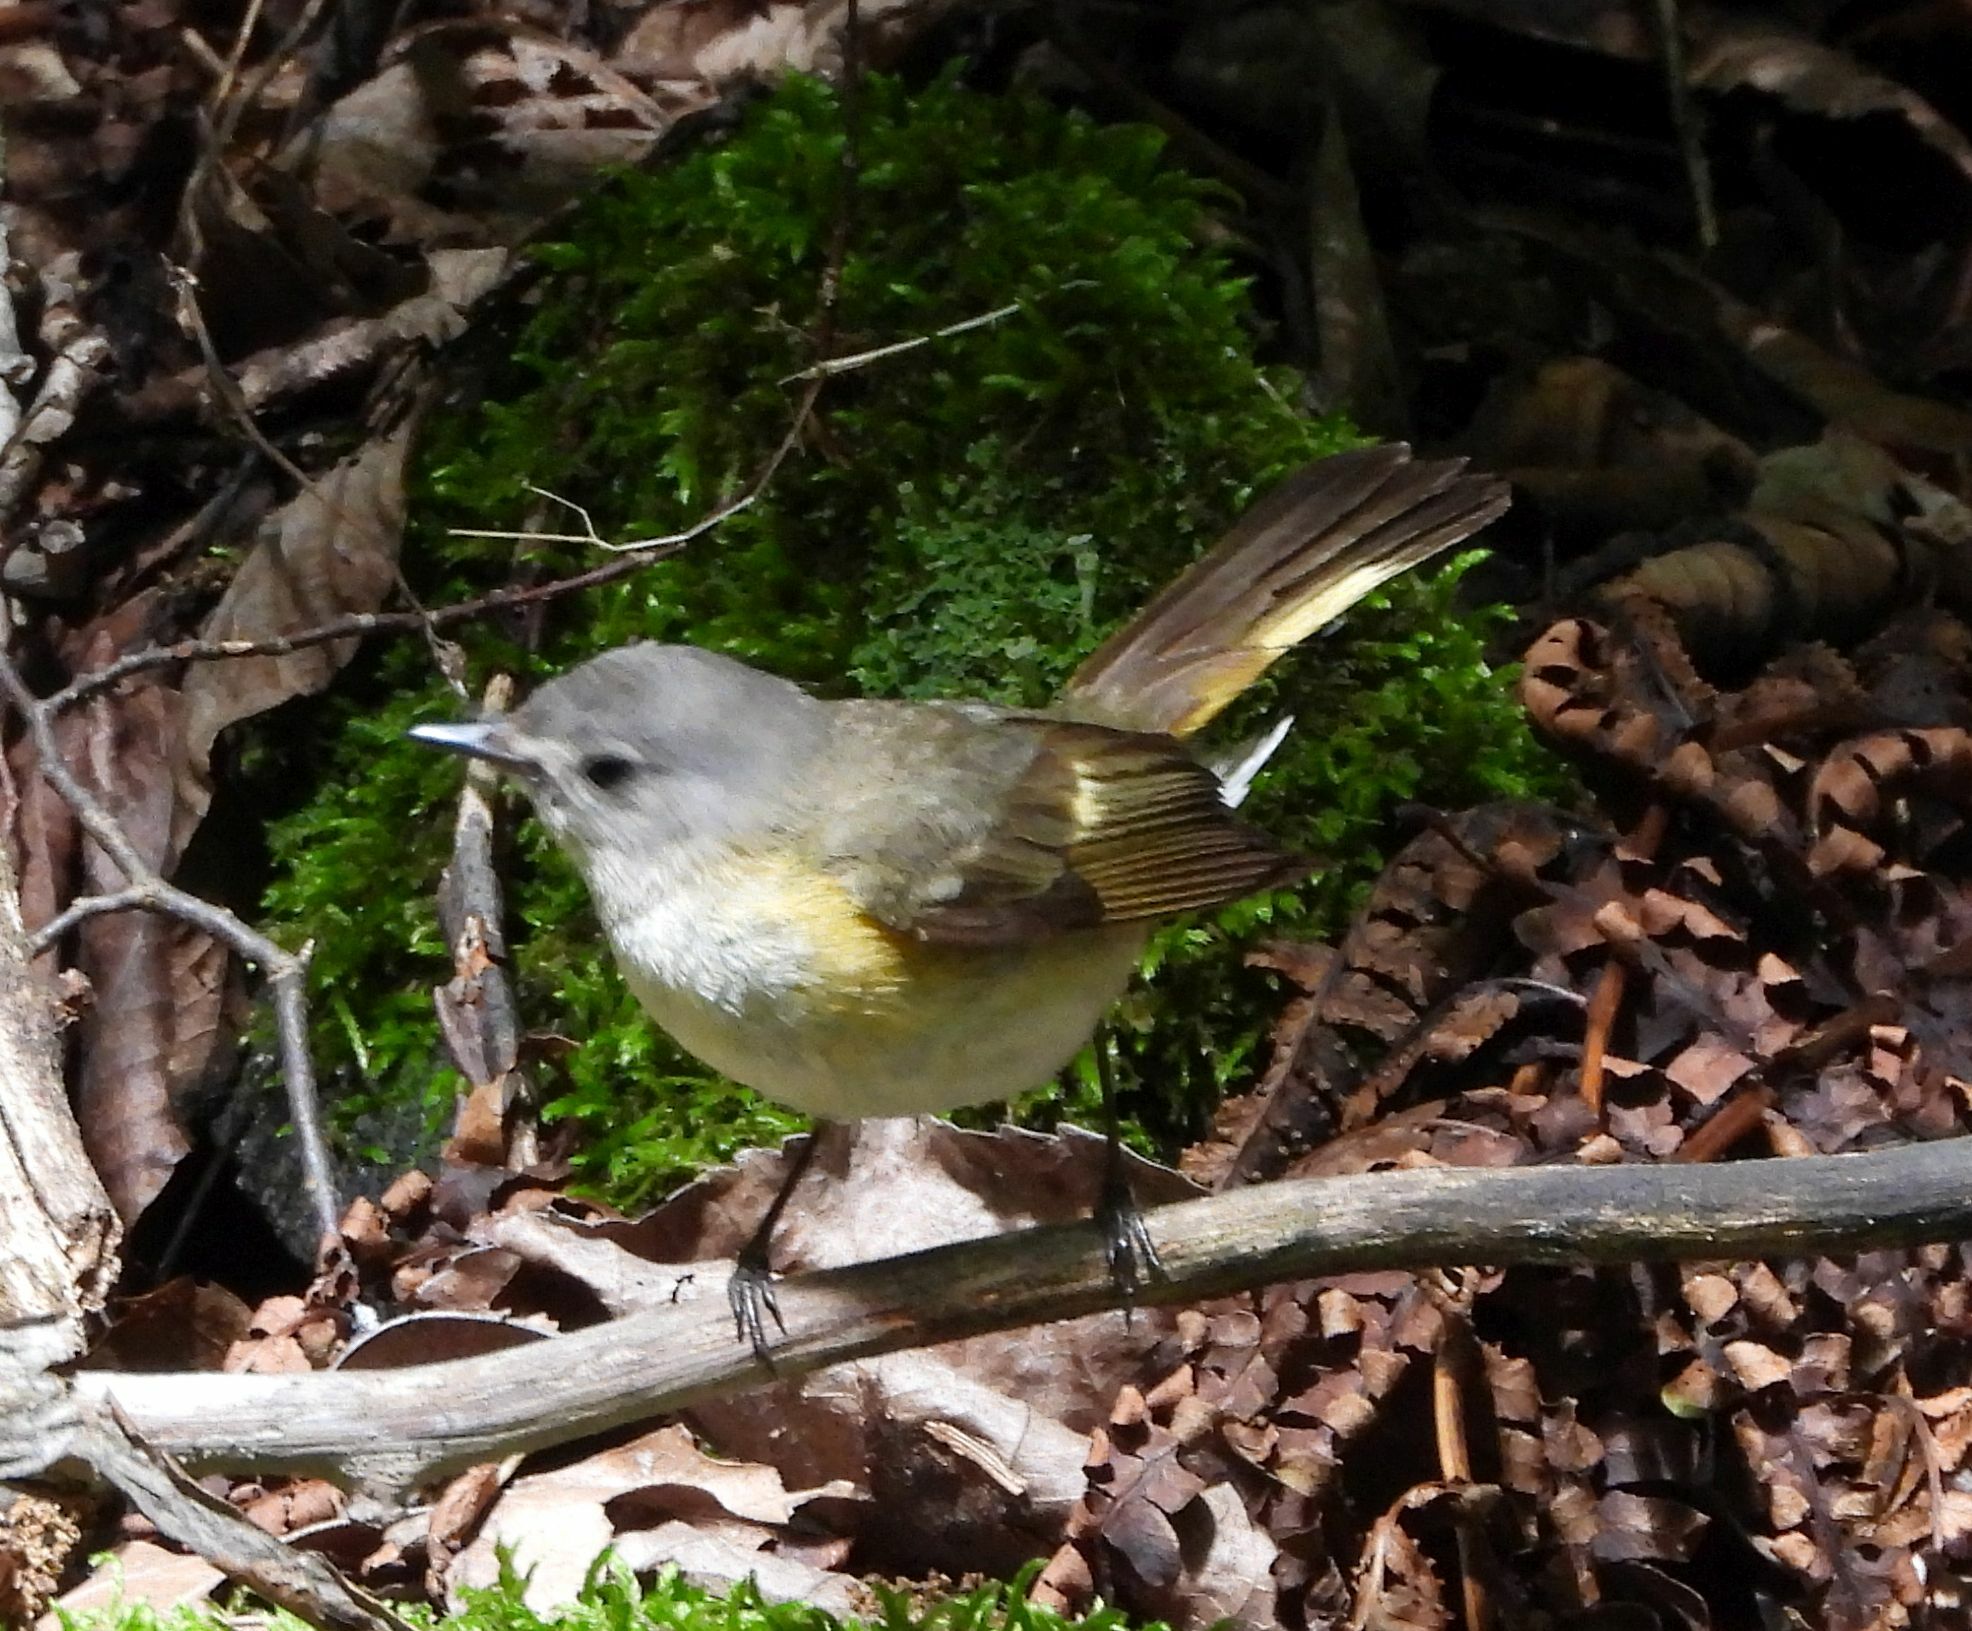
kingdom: Animalia
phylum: Chordata
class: Aves
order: Passeriformes
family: Parulidae
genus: Setophaga
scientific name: Setophaga ruticilla
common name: American redstart
